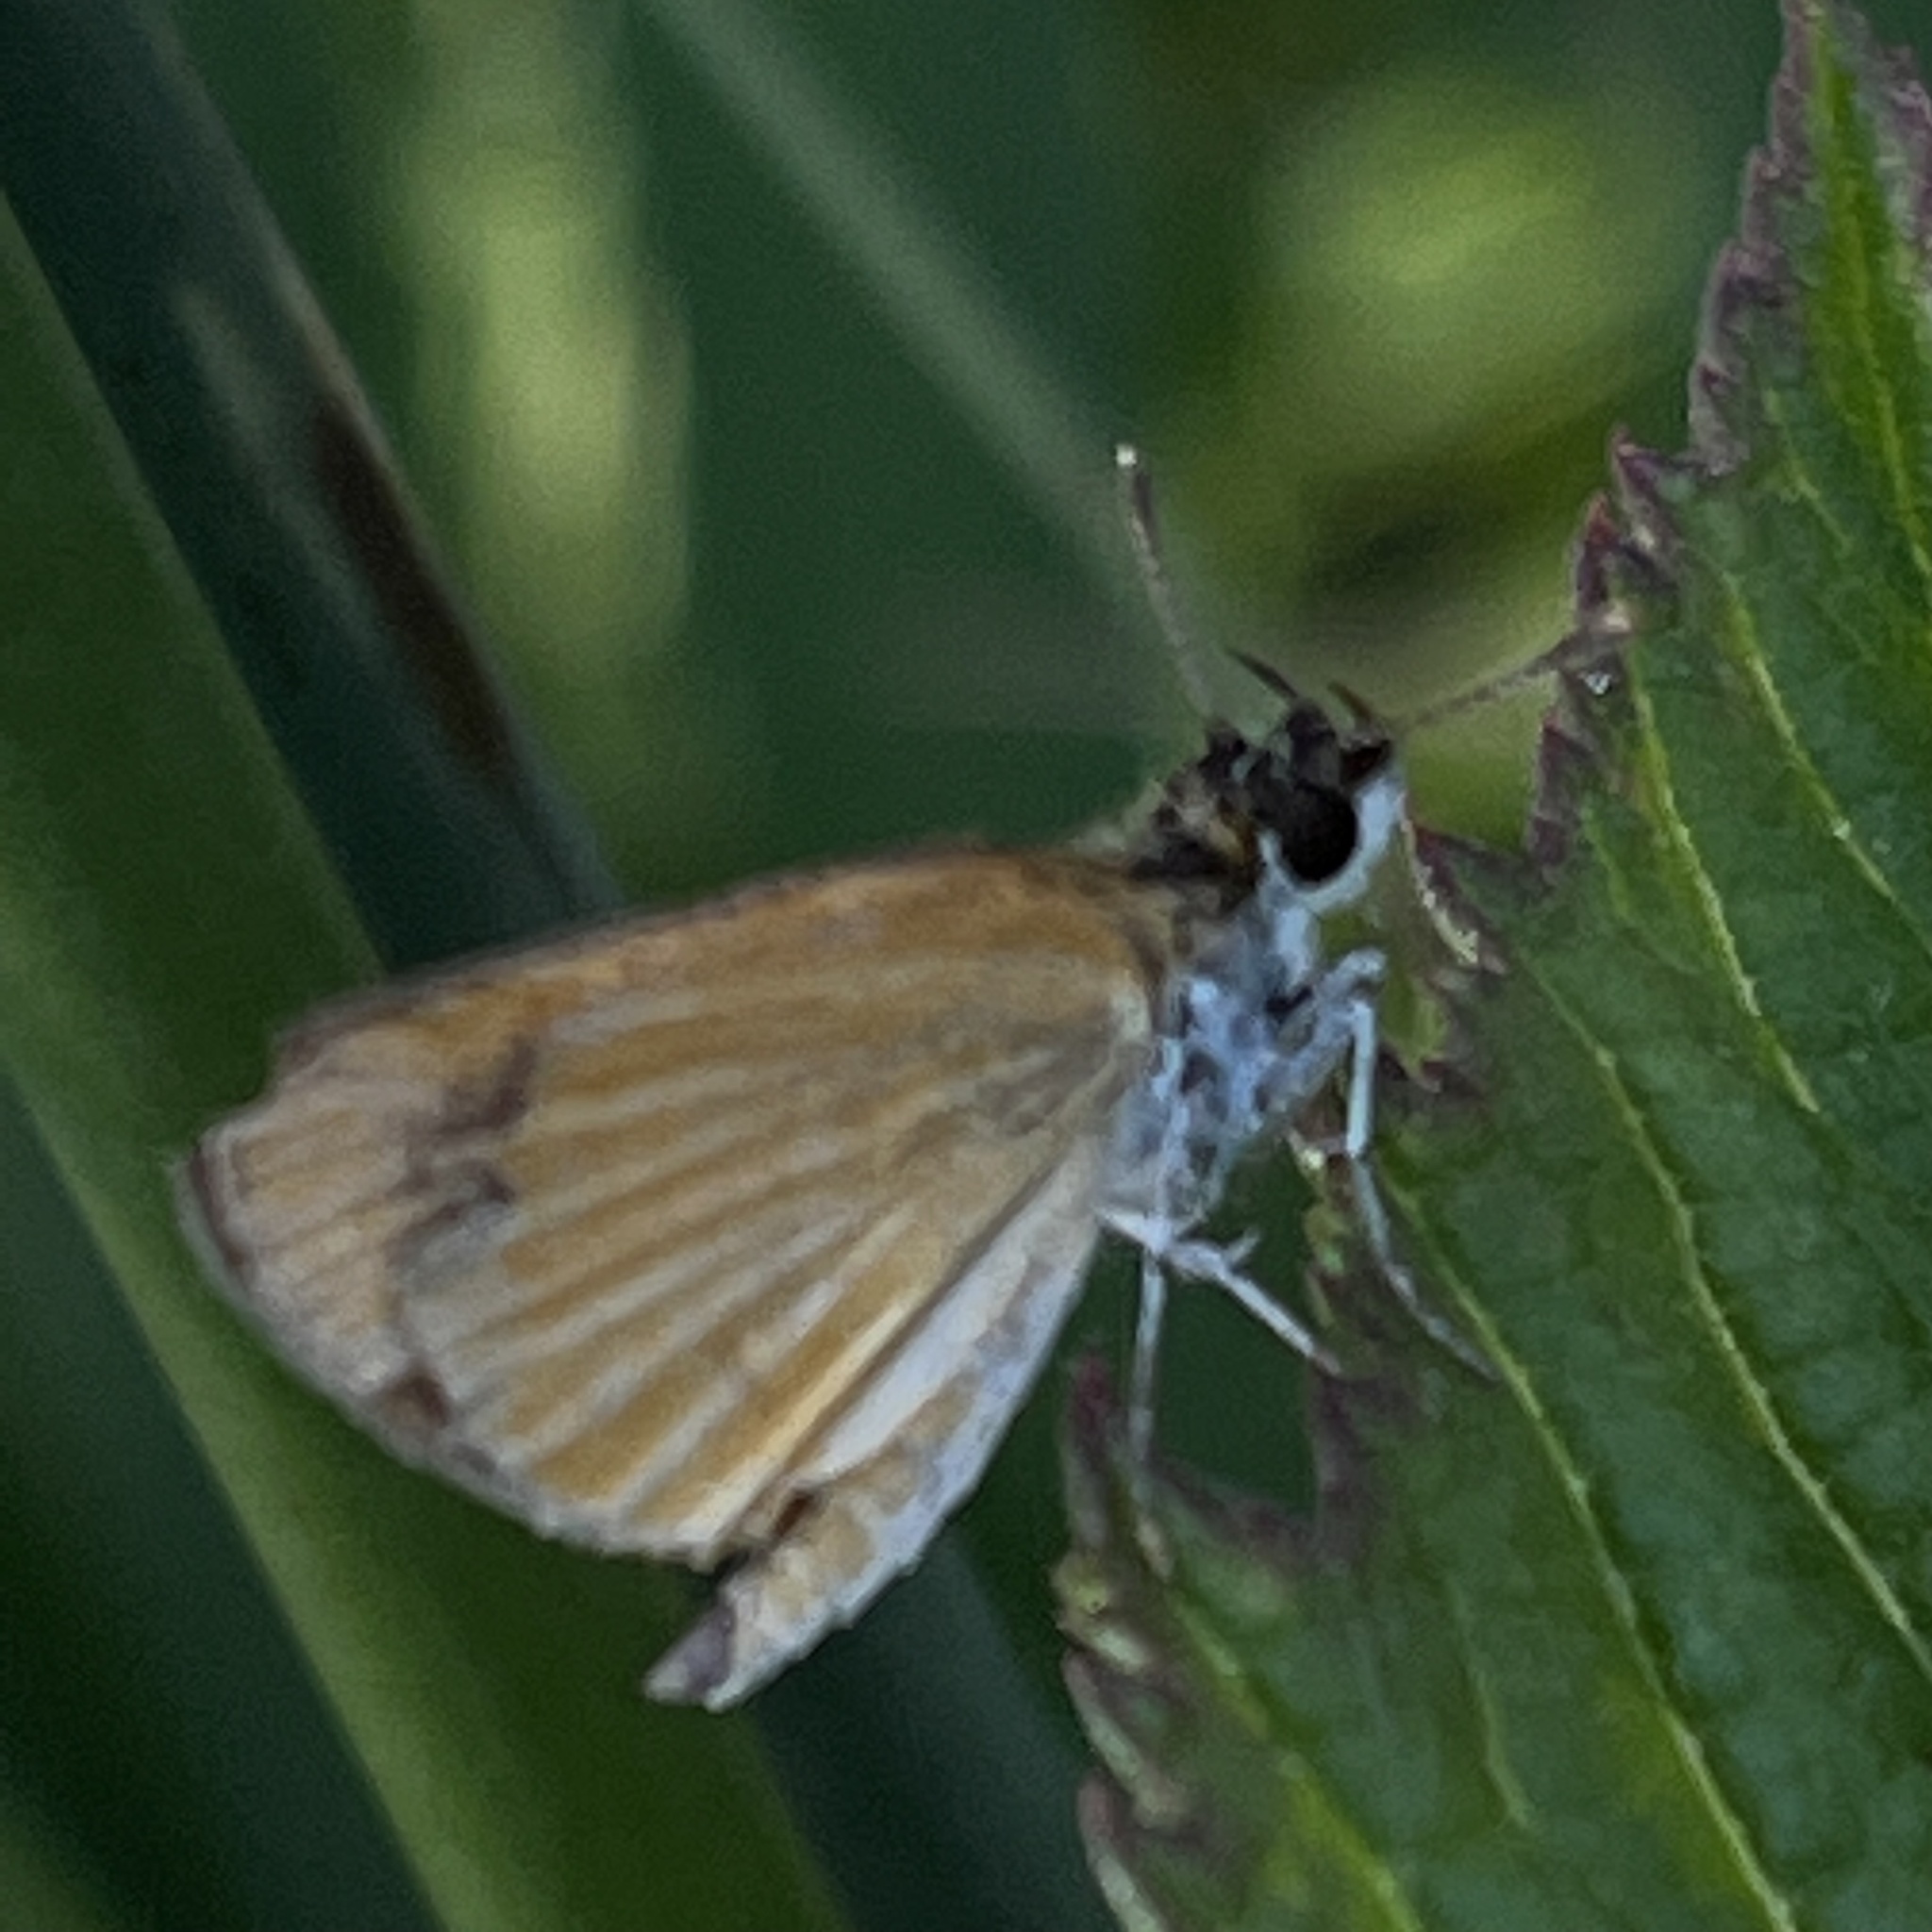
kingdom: Animalia
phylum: Arthropoda
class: Insecta
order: Lepidoptera
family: Hesperiidae
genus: Ancyloxypha
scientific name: Ancyloxypha numitor
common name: Least skipper
